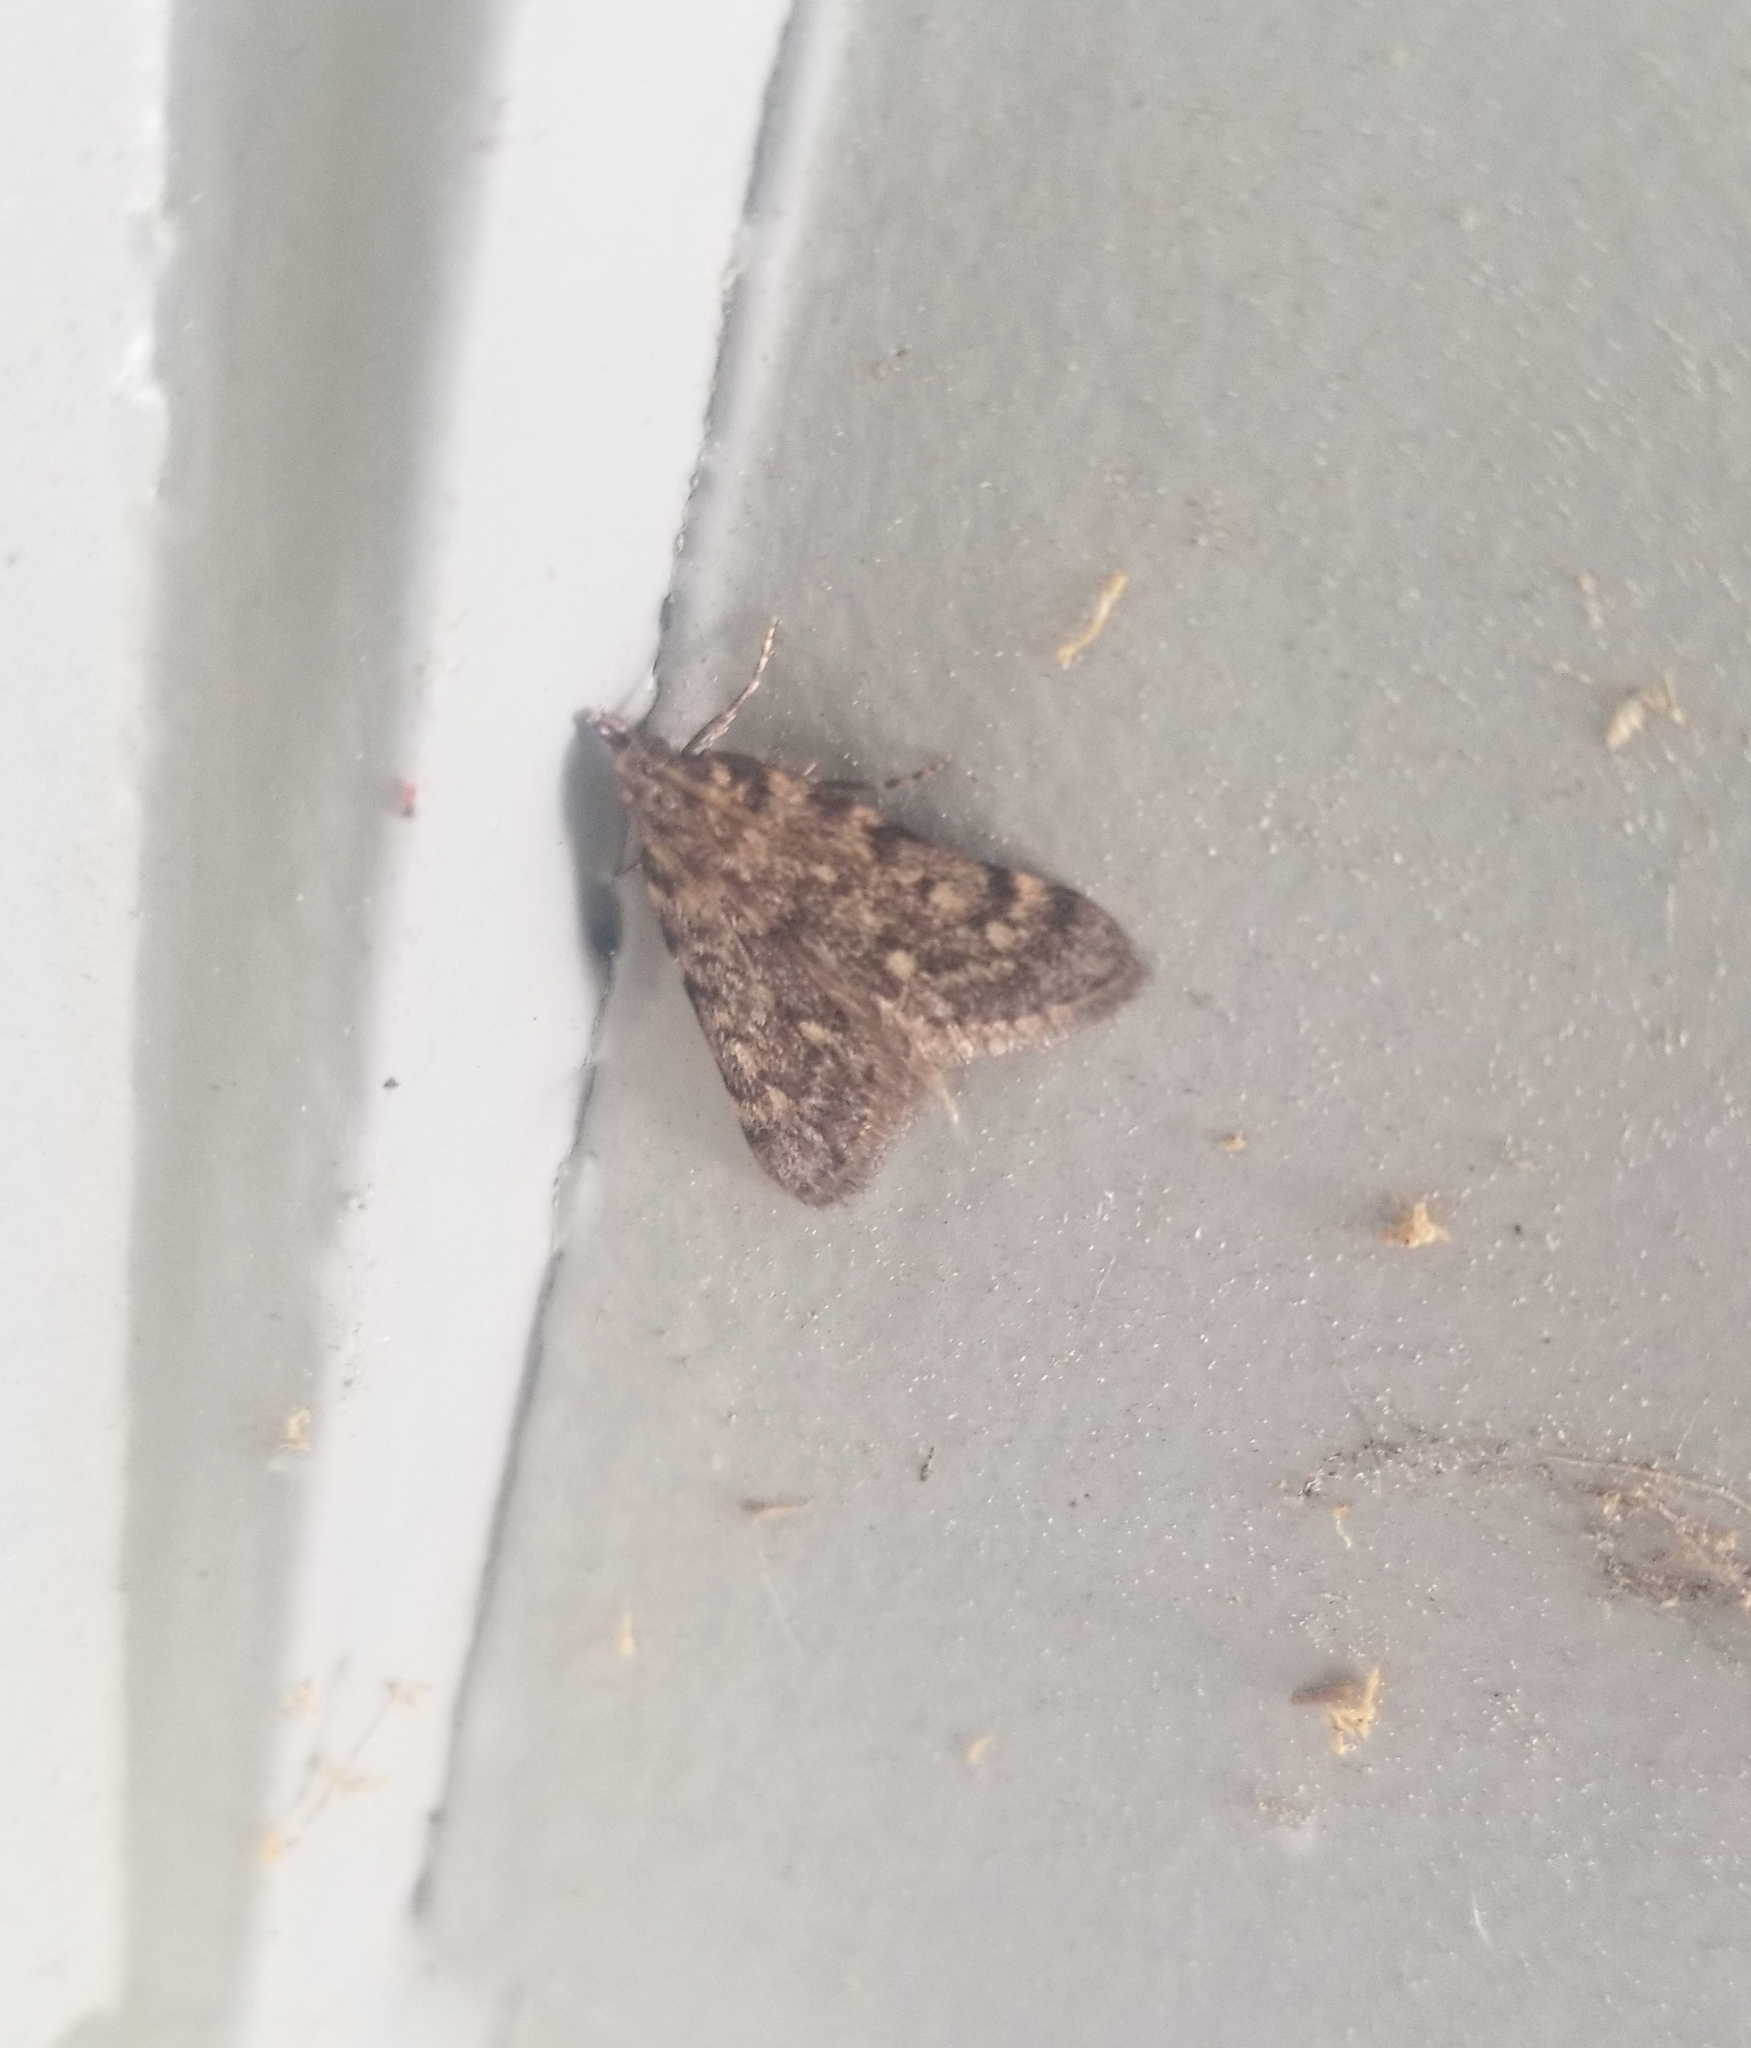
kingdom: Animalia
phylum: Arthropoda
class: Insecta
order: Lepidoptera
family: Pyralidae
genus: Aglossa
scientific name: Aglossa pinguinalis
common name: Large tabby
